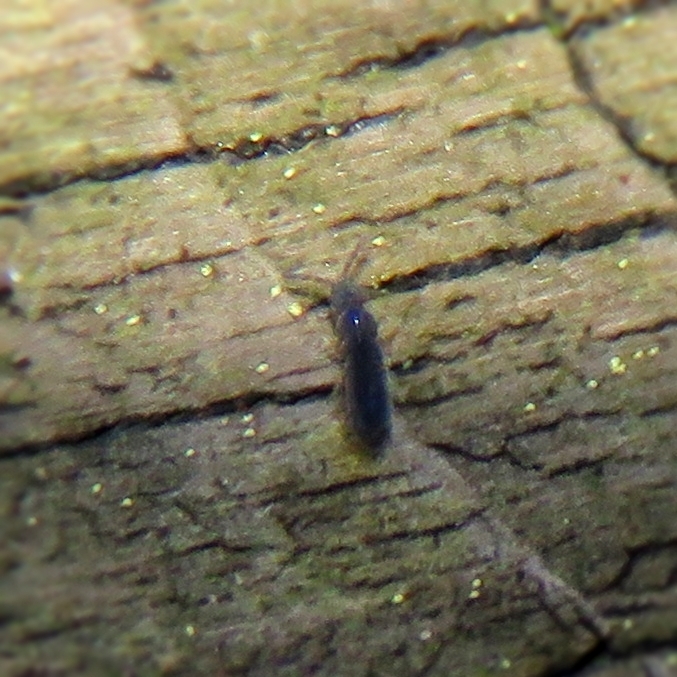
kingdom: Animalia
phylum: Arthropoda
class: Collembola
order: Entomobryomorpha
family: Isotomidae
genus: Vertagopus
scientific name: Vertagopus asiaticus
